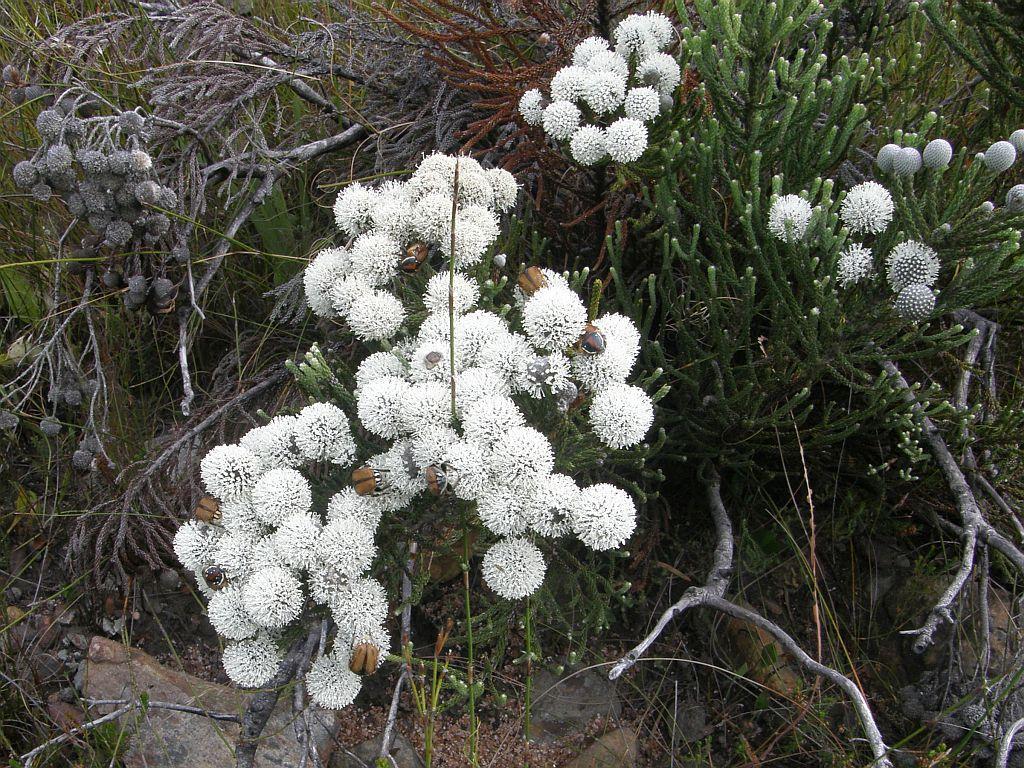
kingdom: Plantae
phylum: Tracheophyta
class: Magnoliopsida
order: Bruniales
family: Bruniaceae
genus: Brunia
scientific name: Brunia noduliflora
